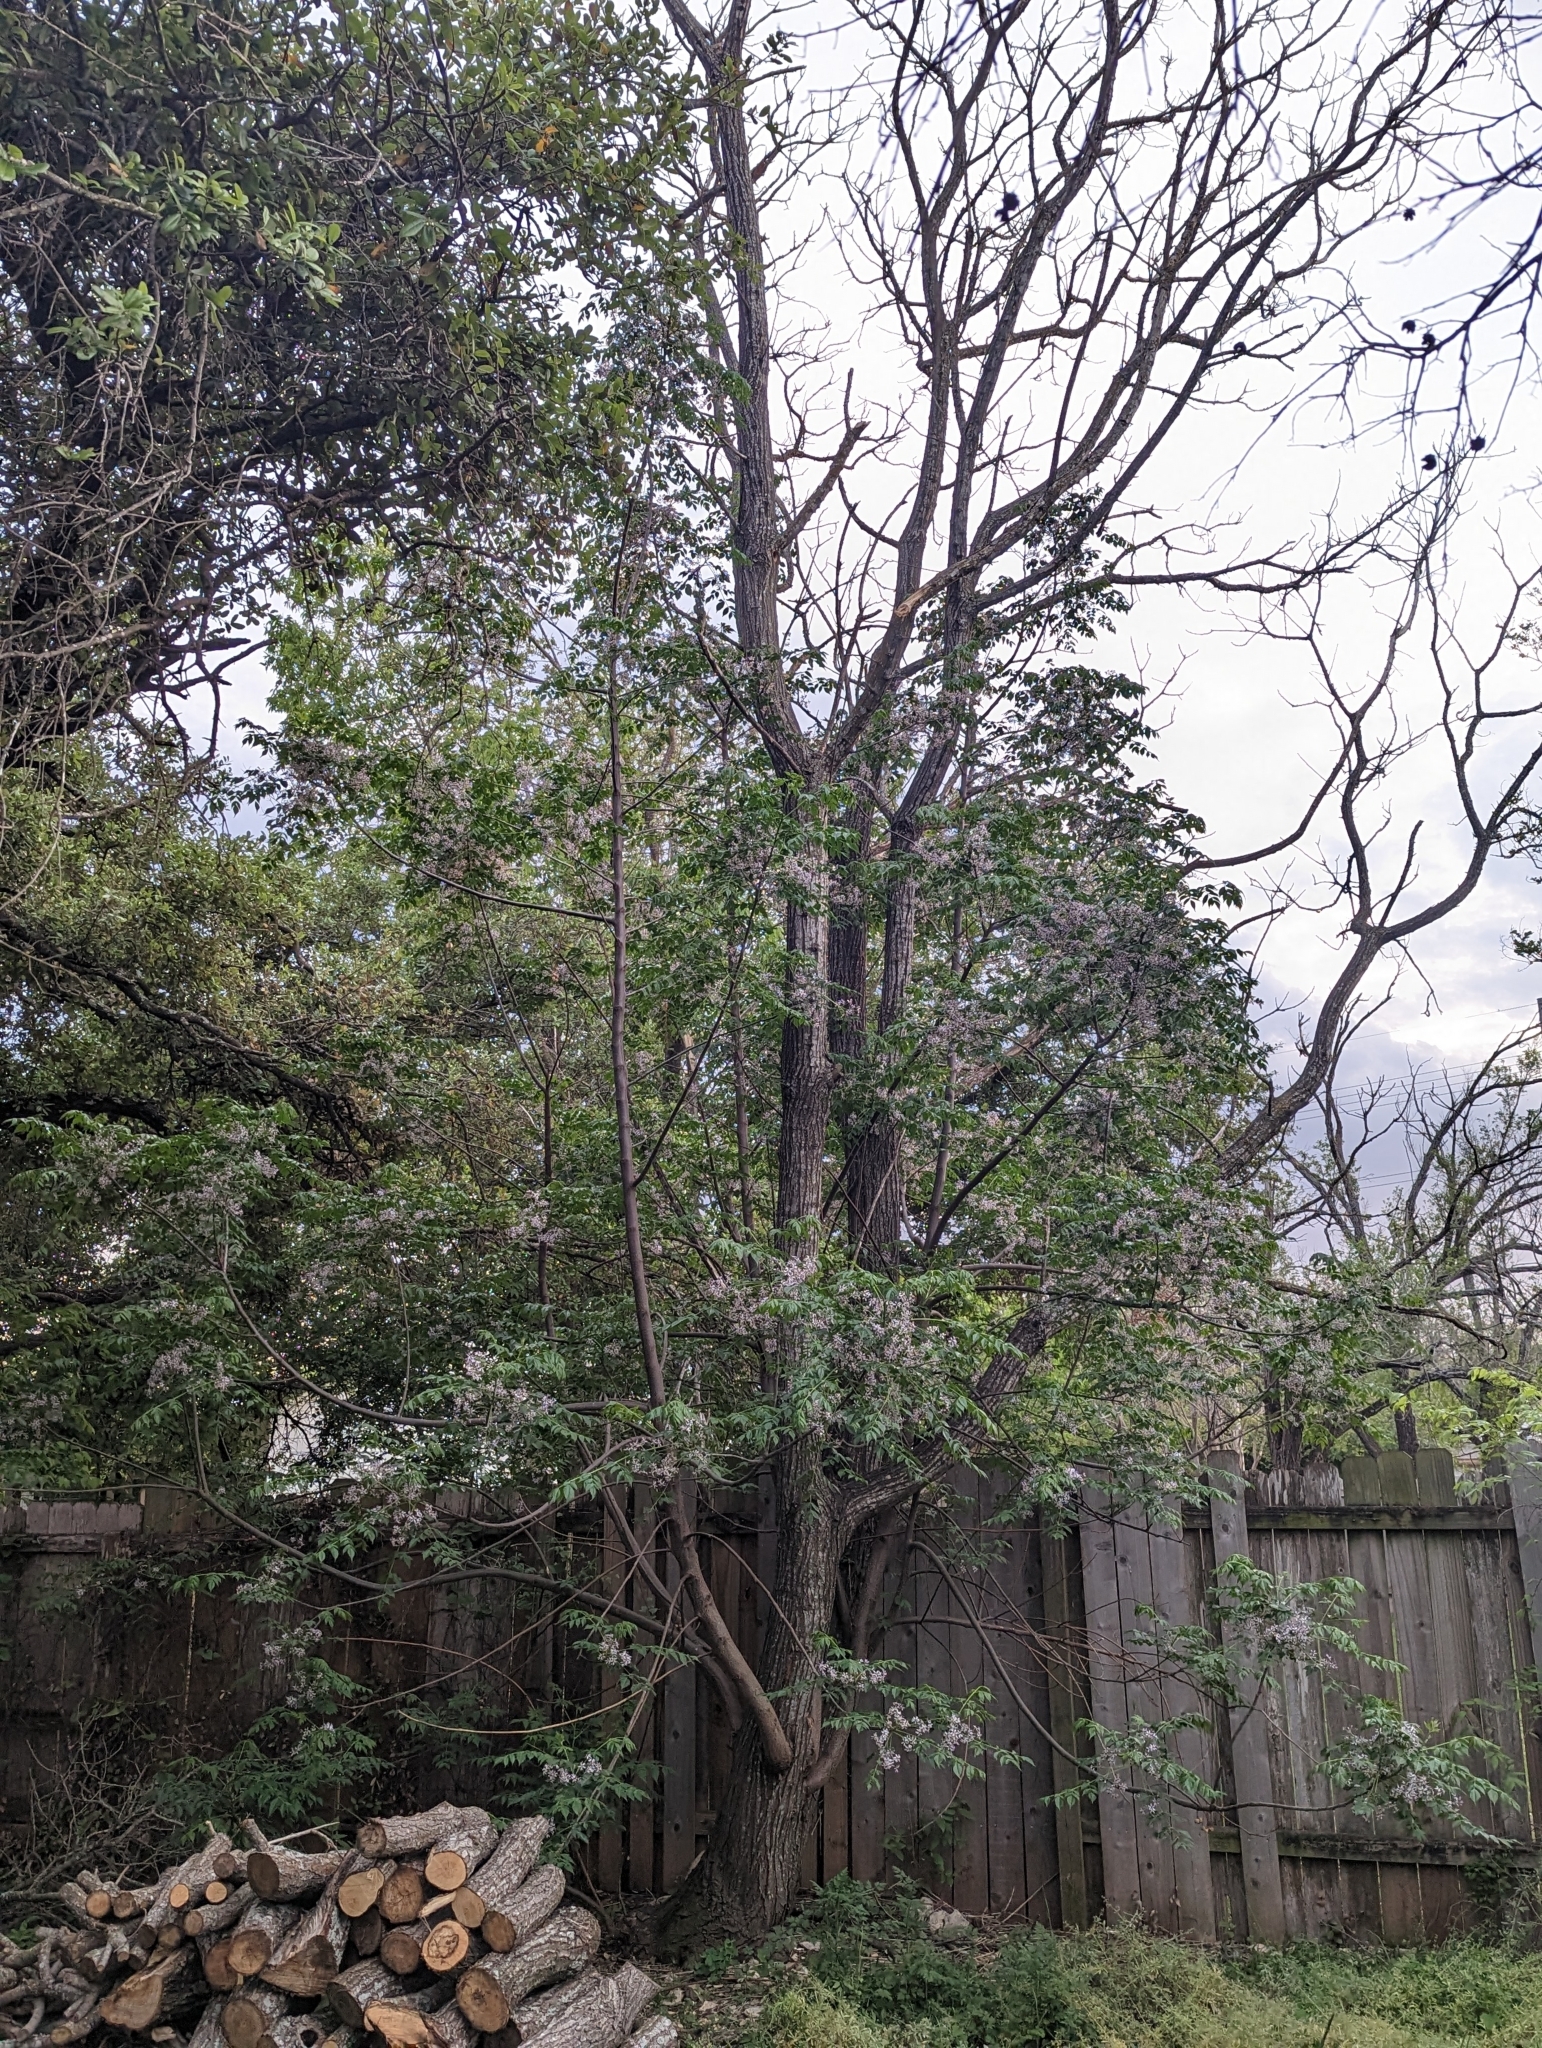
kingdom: Plantae
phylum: Tracheophyta
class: Magnoliopsida
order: Sapindales
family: Meliaceae
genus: Melia
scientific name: Melia azedarach
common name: Chinaberrytree
